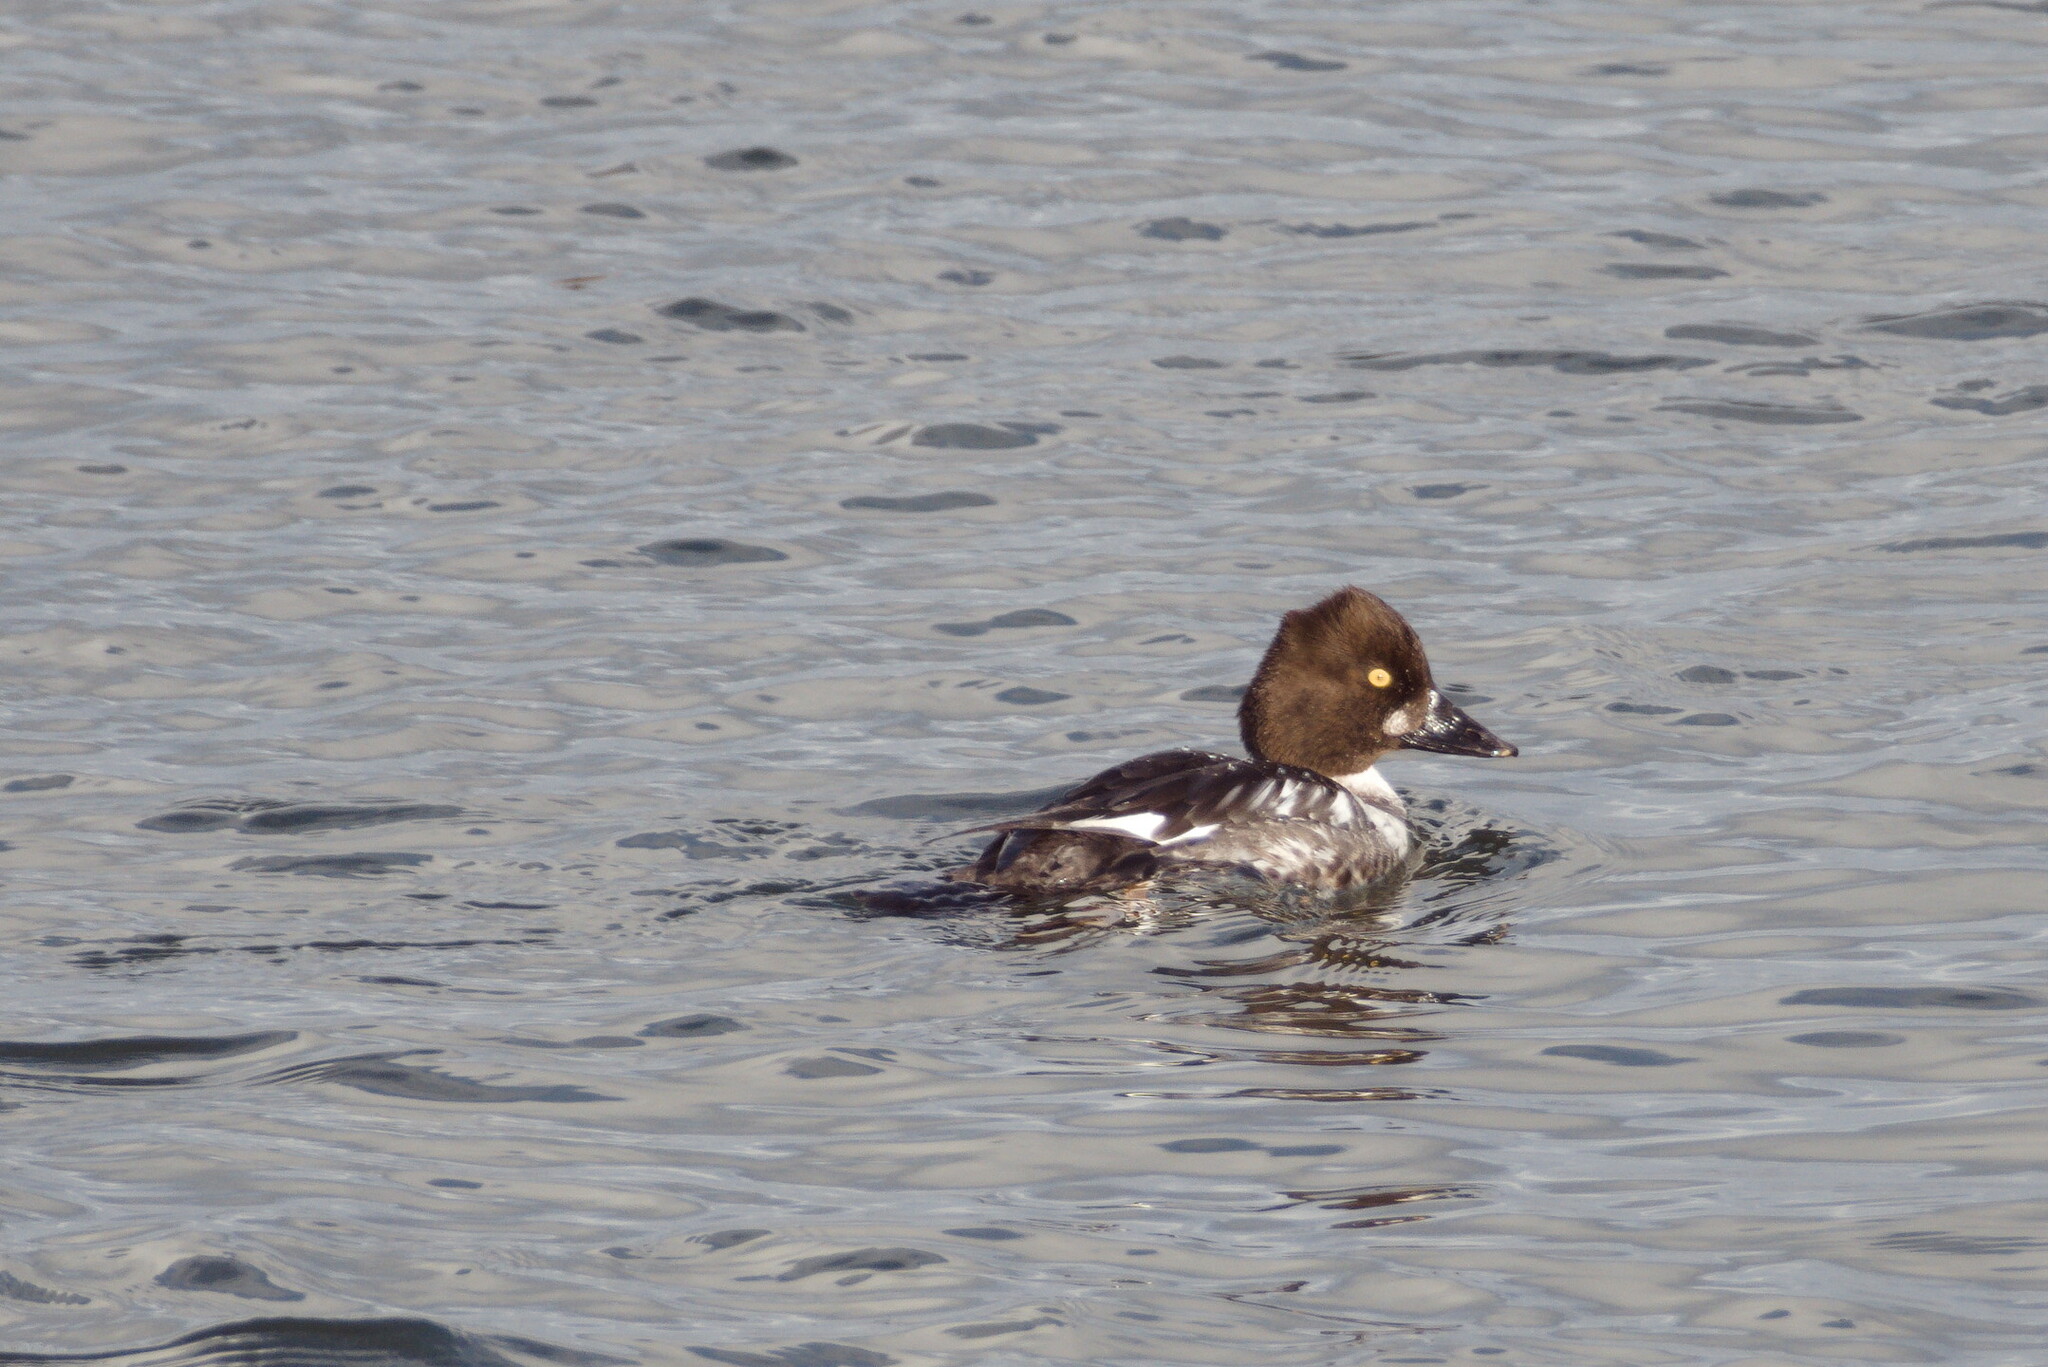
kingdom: Animalia
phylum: Chordata
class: Aves
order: Anseriformes
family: Anatidae
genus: Bucephala
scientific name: Bucephala clangula
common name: Common goldeneye
